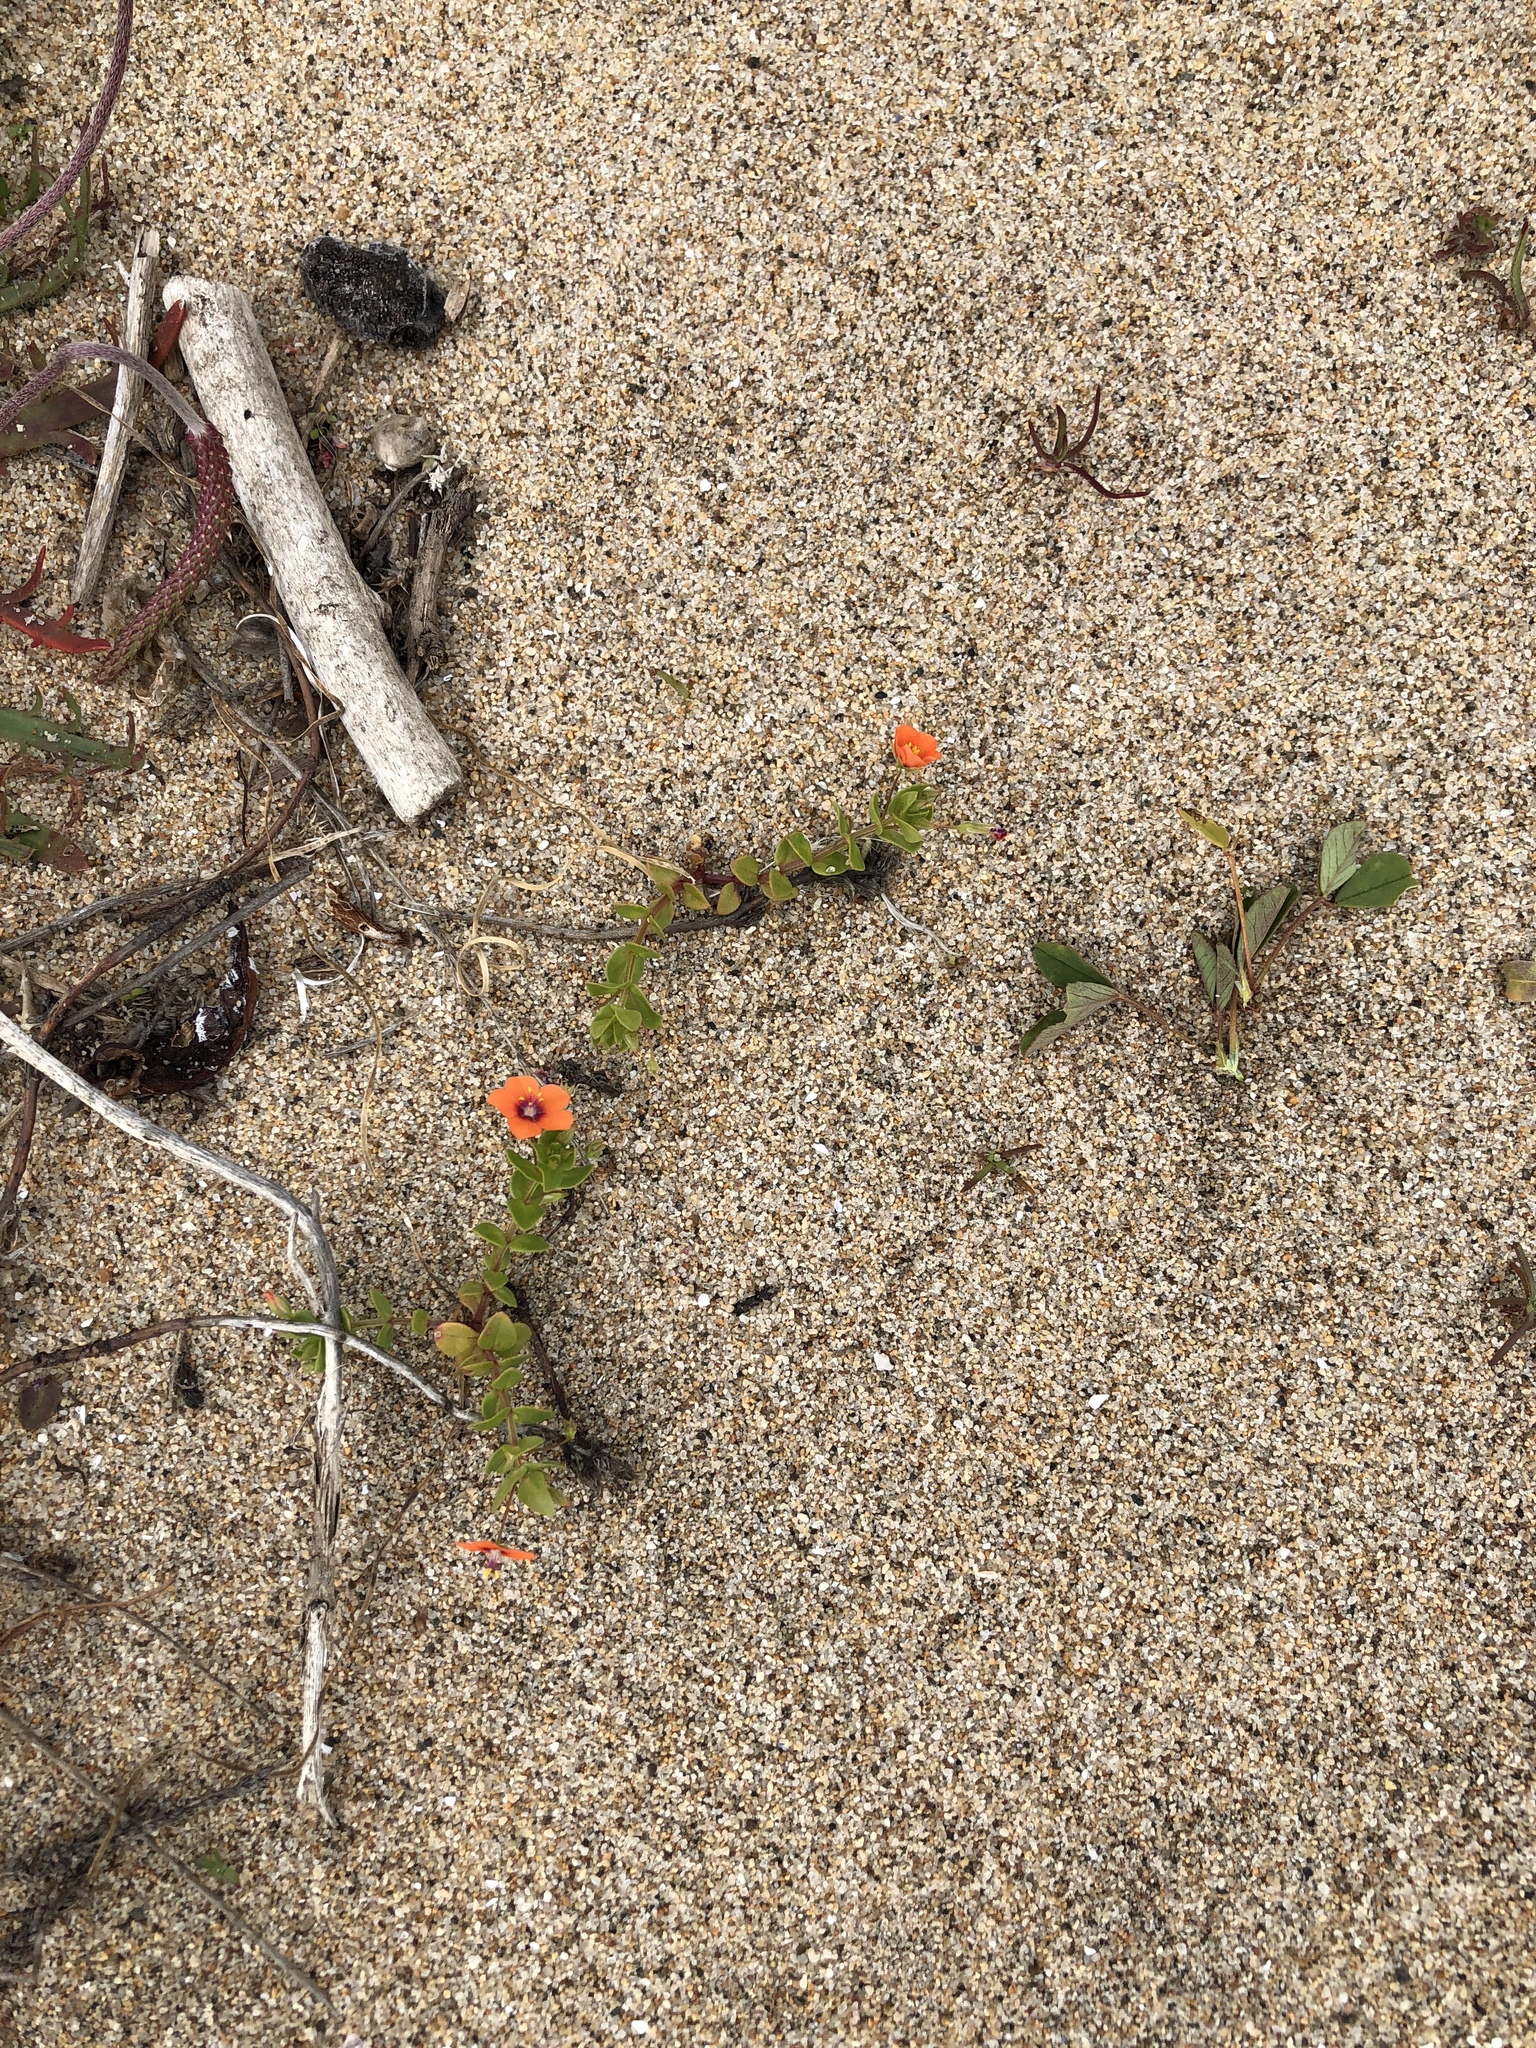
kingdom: Plantae
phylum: Tracheophyta
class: Magnoliopsida
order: Ericales
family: Primulaceae
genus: Lysimachia
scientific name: Lysimachia arvensis
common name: Scarlet pimpernel
